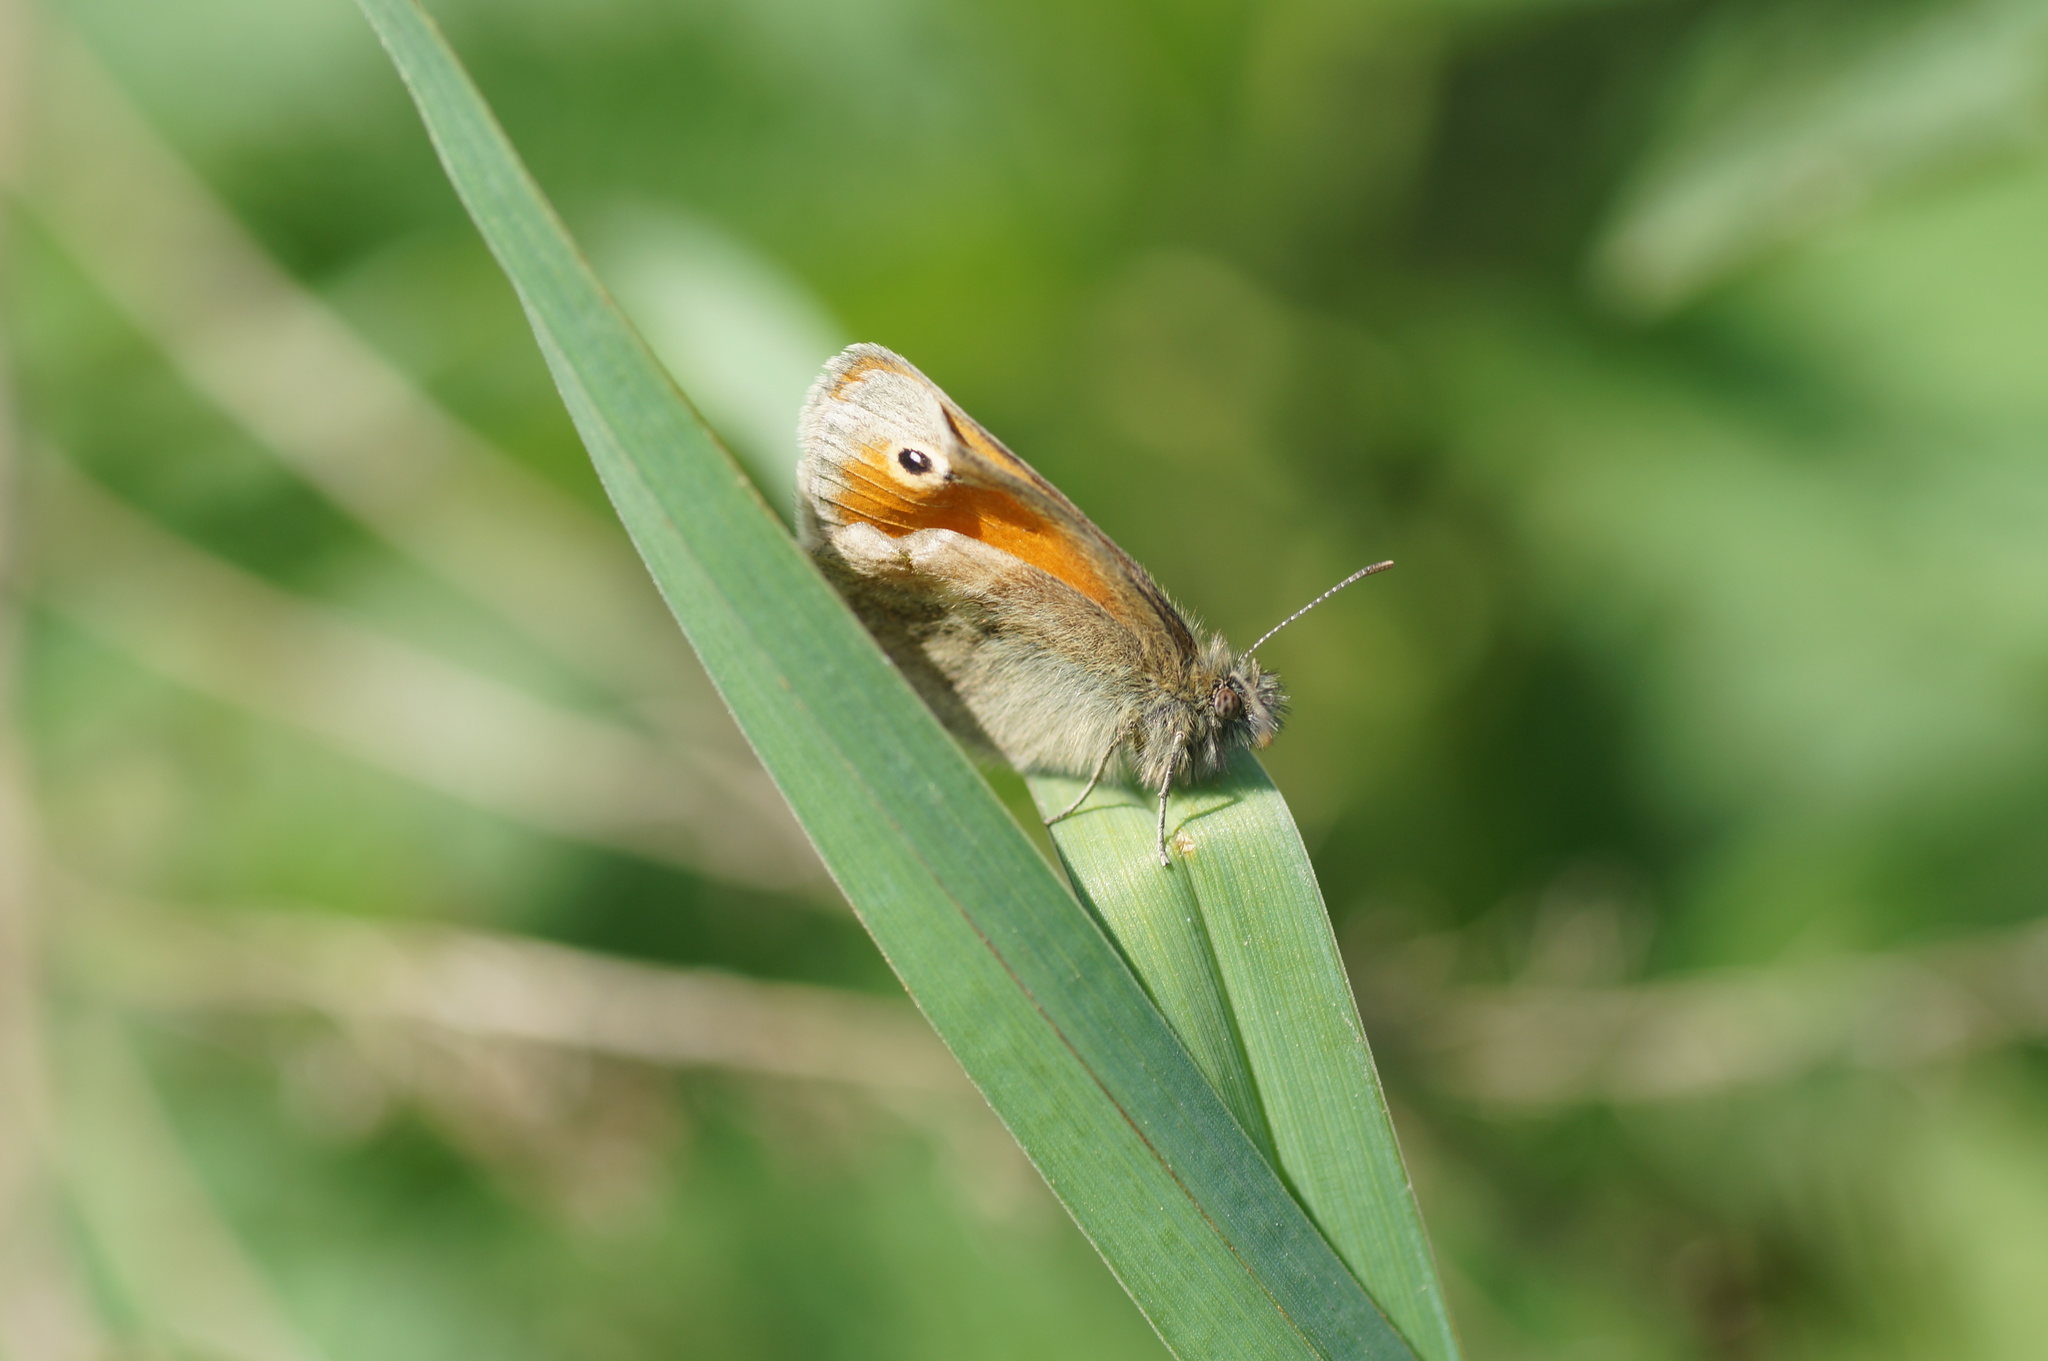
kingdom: Animalia
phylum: Arthropoda
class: Insecta
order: Lepidoptera
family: Nymphalidae
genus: Coenonympha
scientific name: Coenonympha pamphilus
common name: Small heath
